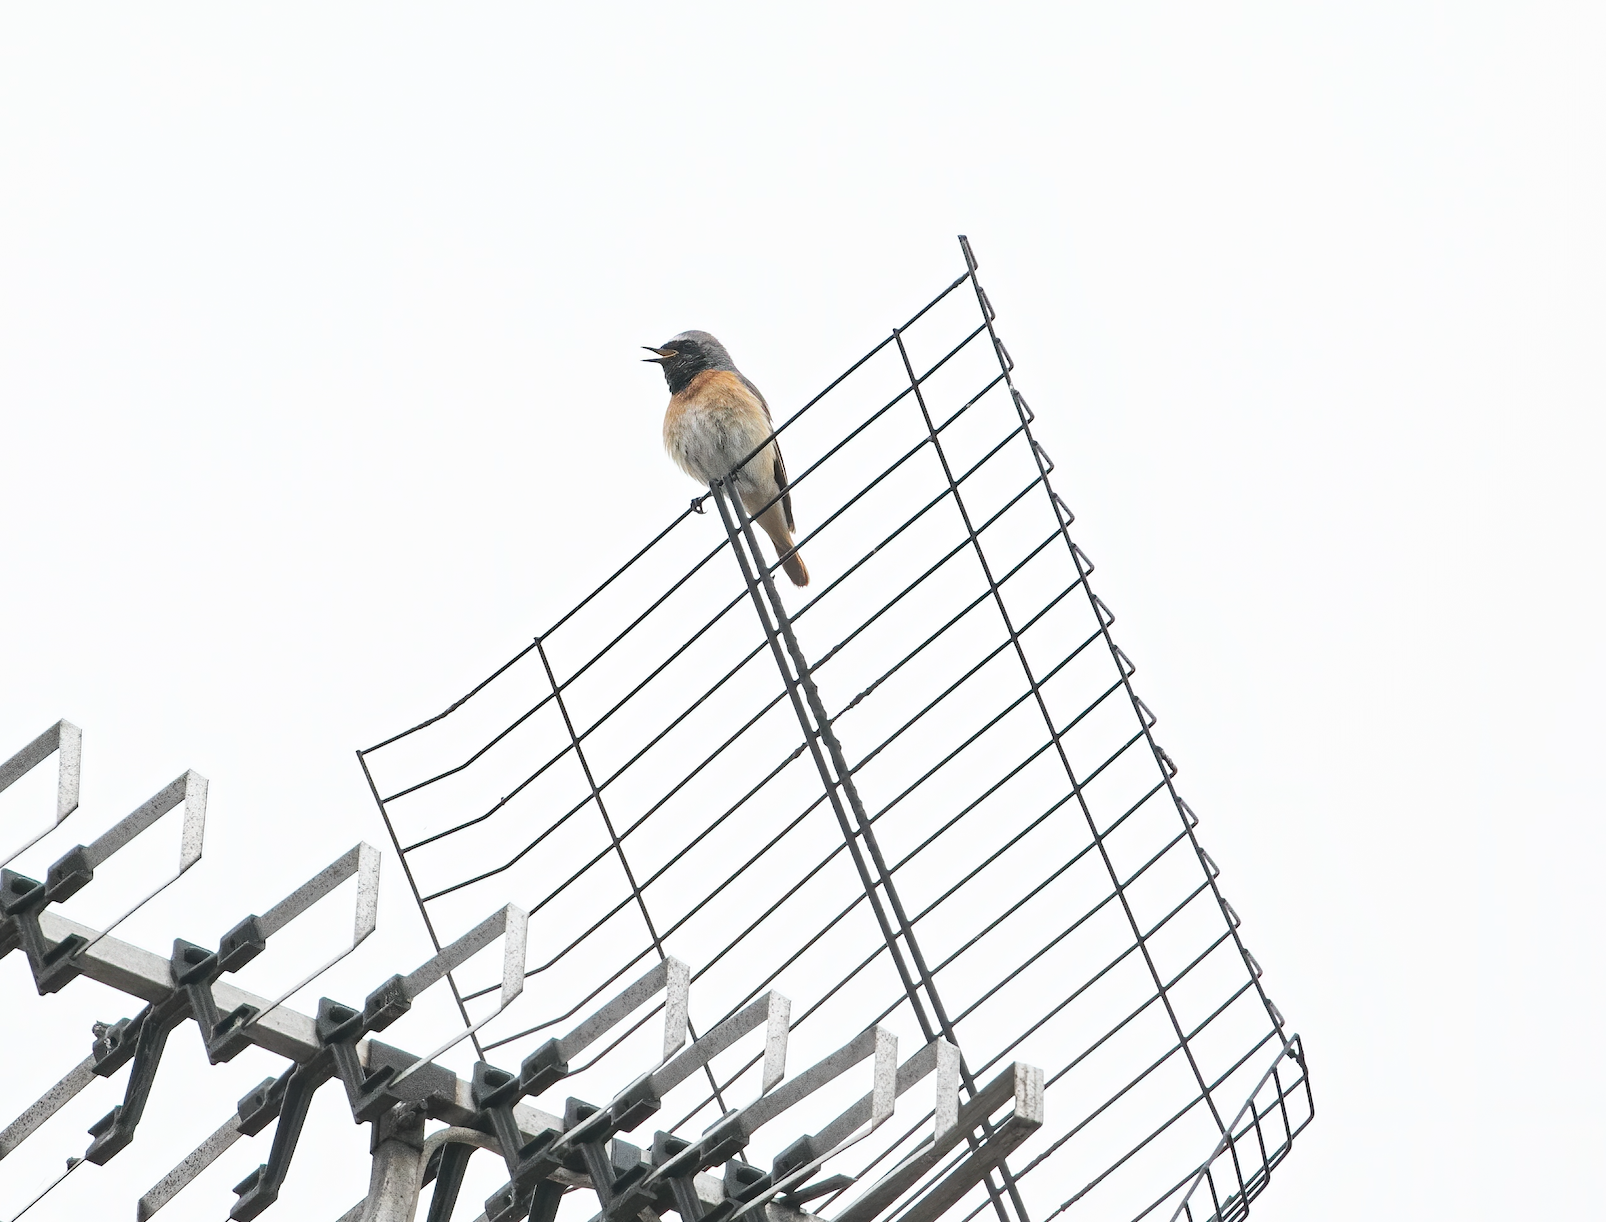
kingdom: Animalia
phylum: Chordata
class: Aves
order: Passeriformes
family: Muscicapidae
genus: Phoenicurus
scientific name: Phoenicurus phoenicurus
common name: Common redstart
